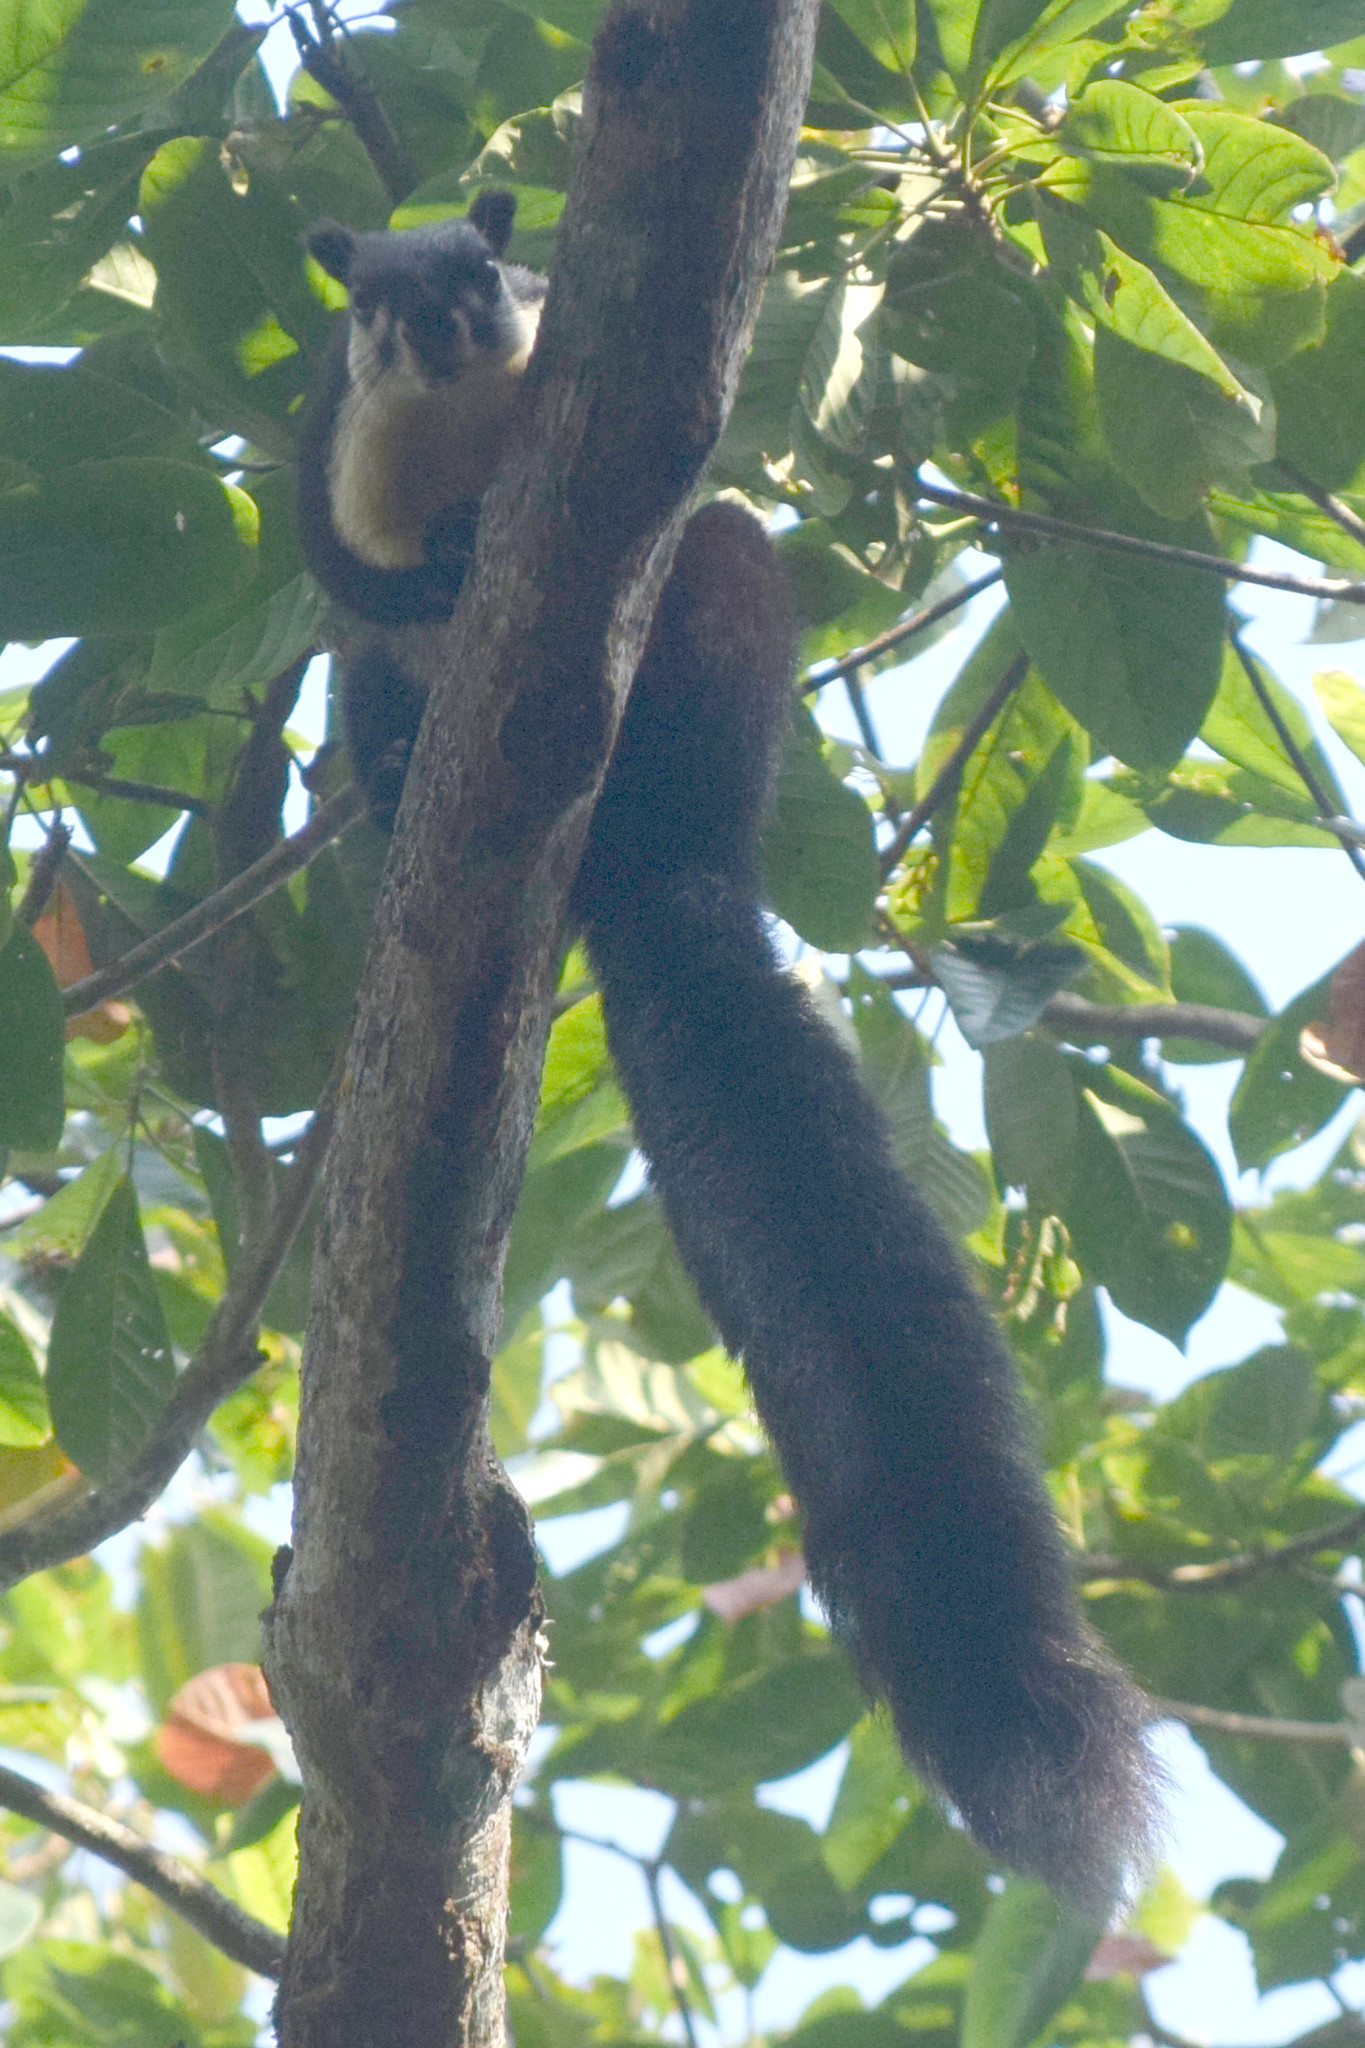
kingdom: Animalia
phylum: Chordata
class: Mammalia
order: Rodentia
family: Sciuridae
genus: Ratufa
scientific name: Ratufa bicolor
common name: Black giant squirrel
